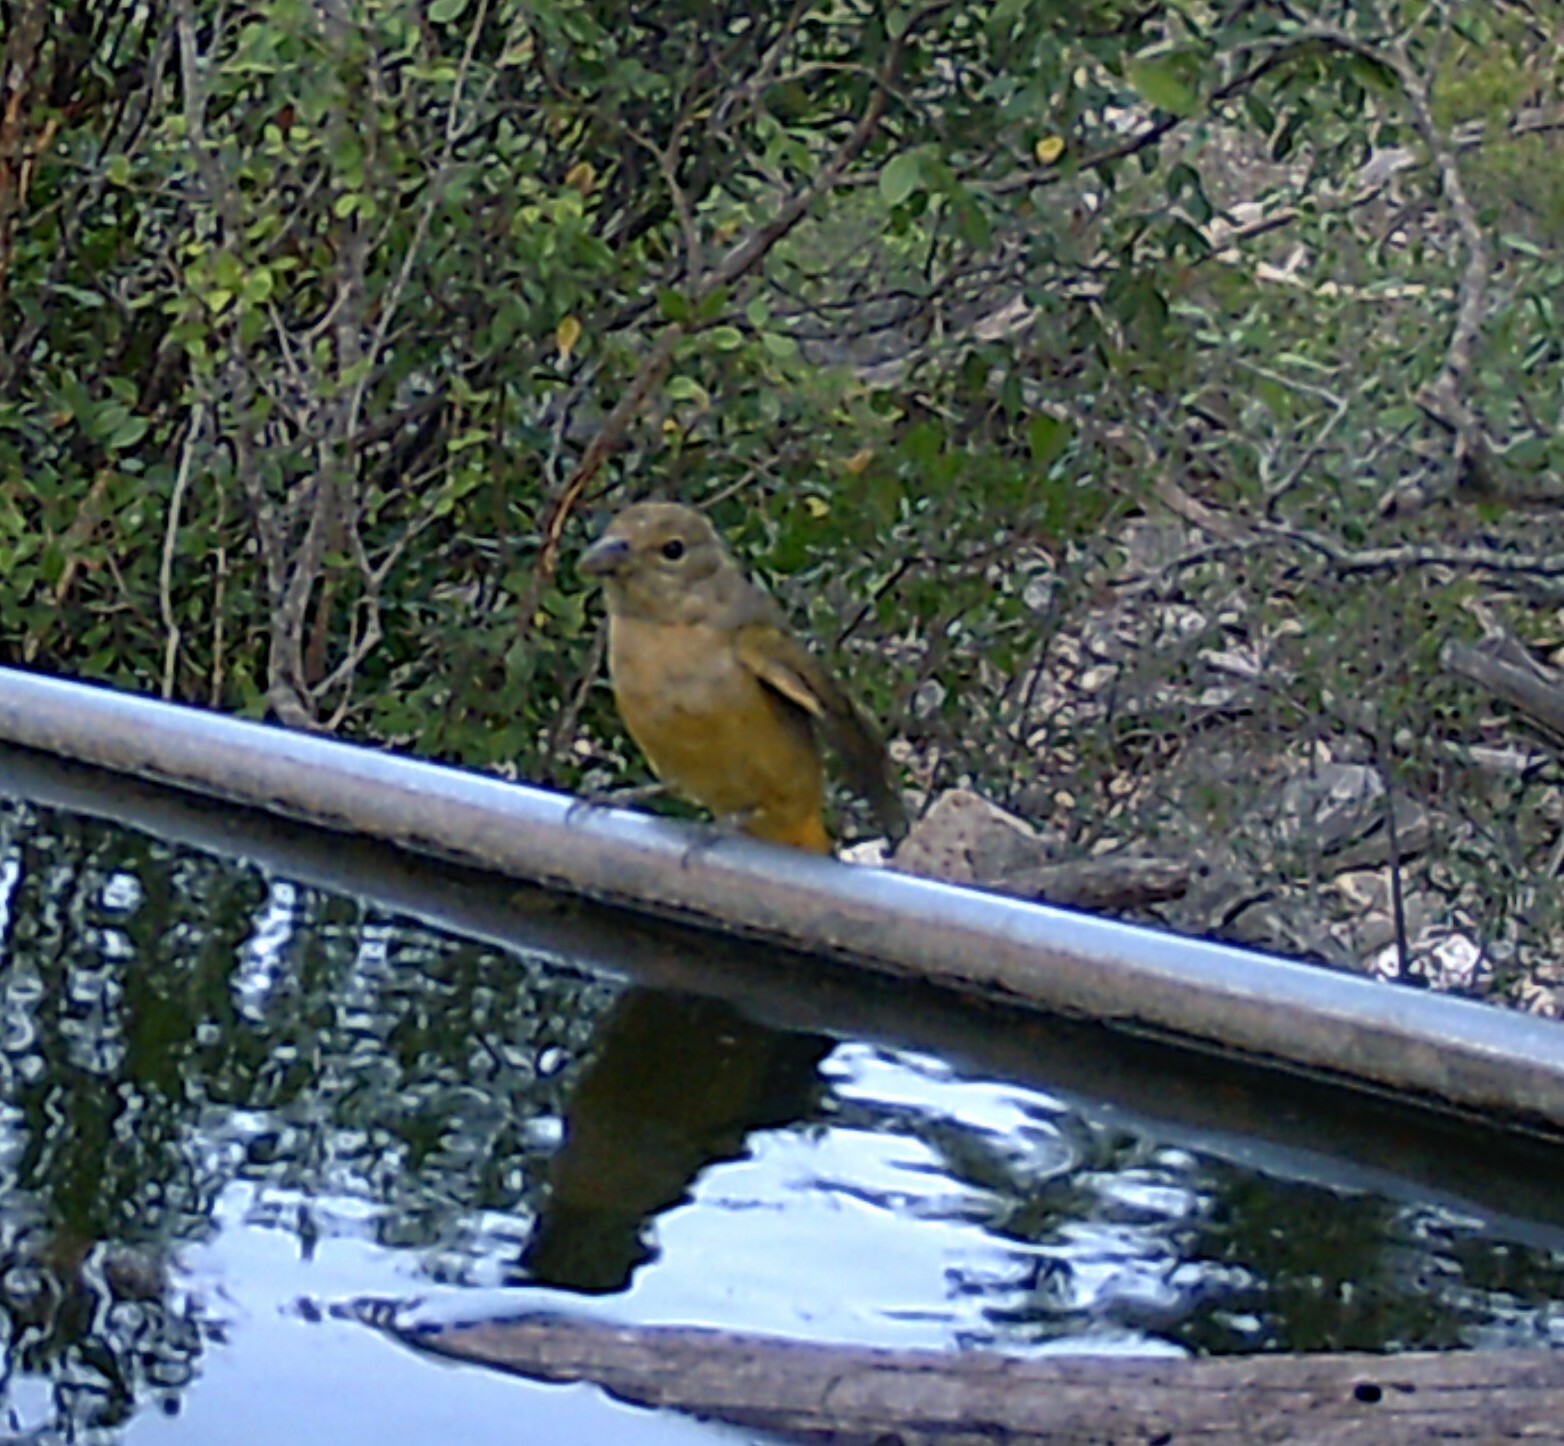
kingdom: Animalia
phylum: Chordata
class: Aves
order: Passeriformes
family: Cardinalidae
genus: Piranga
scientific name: Piranga rubra
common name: Summer tanager
